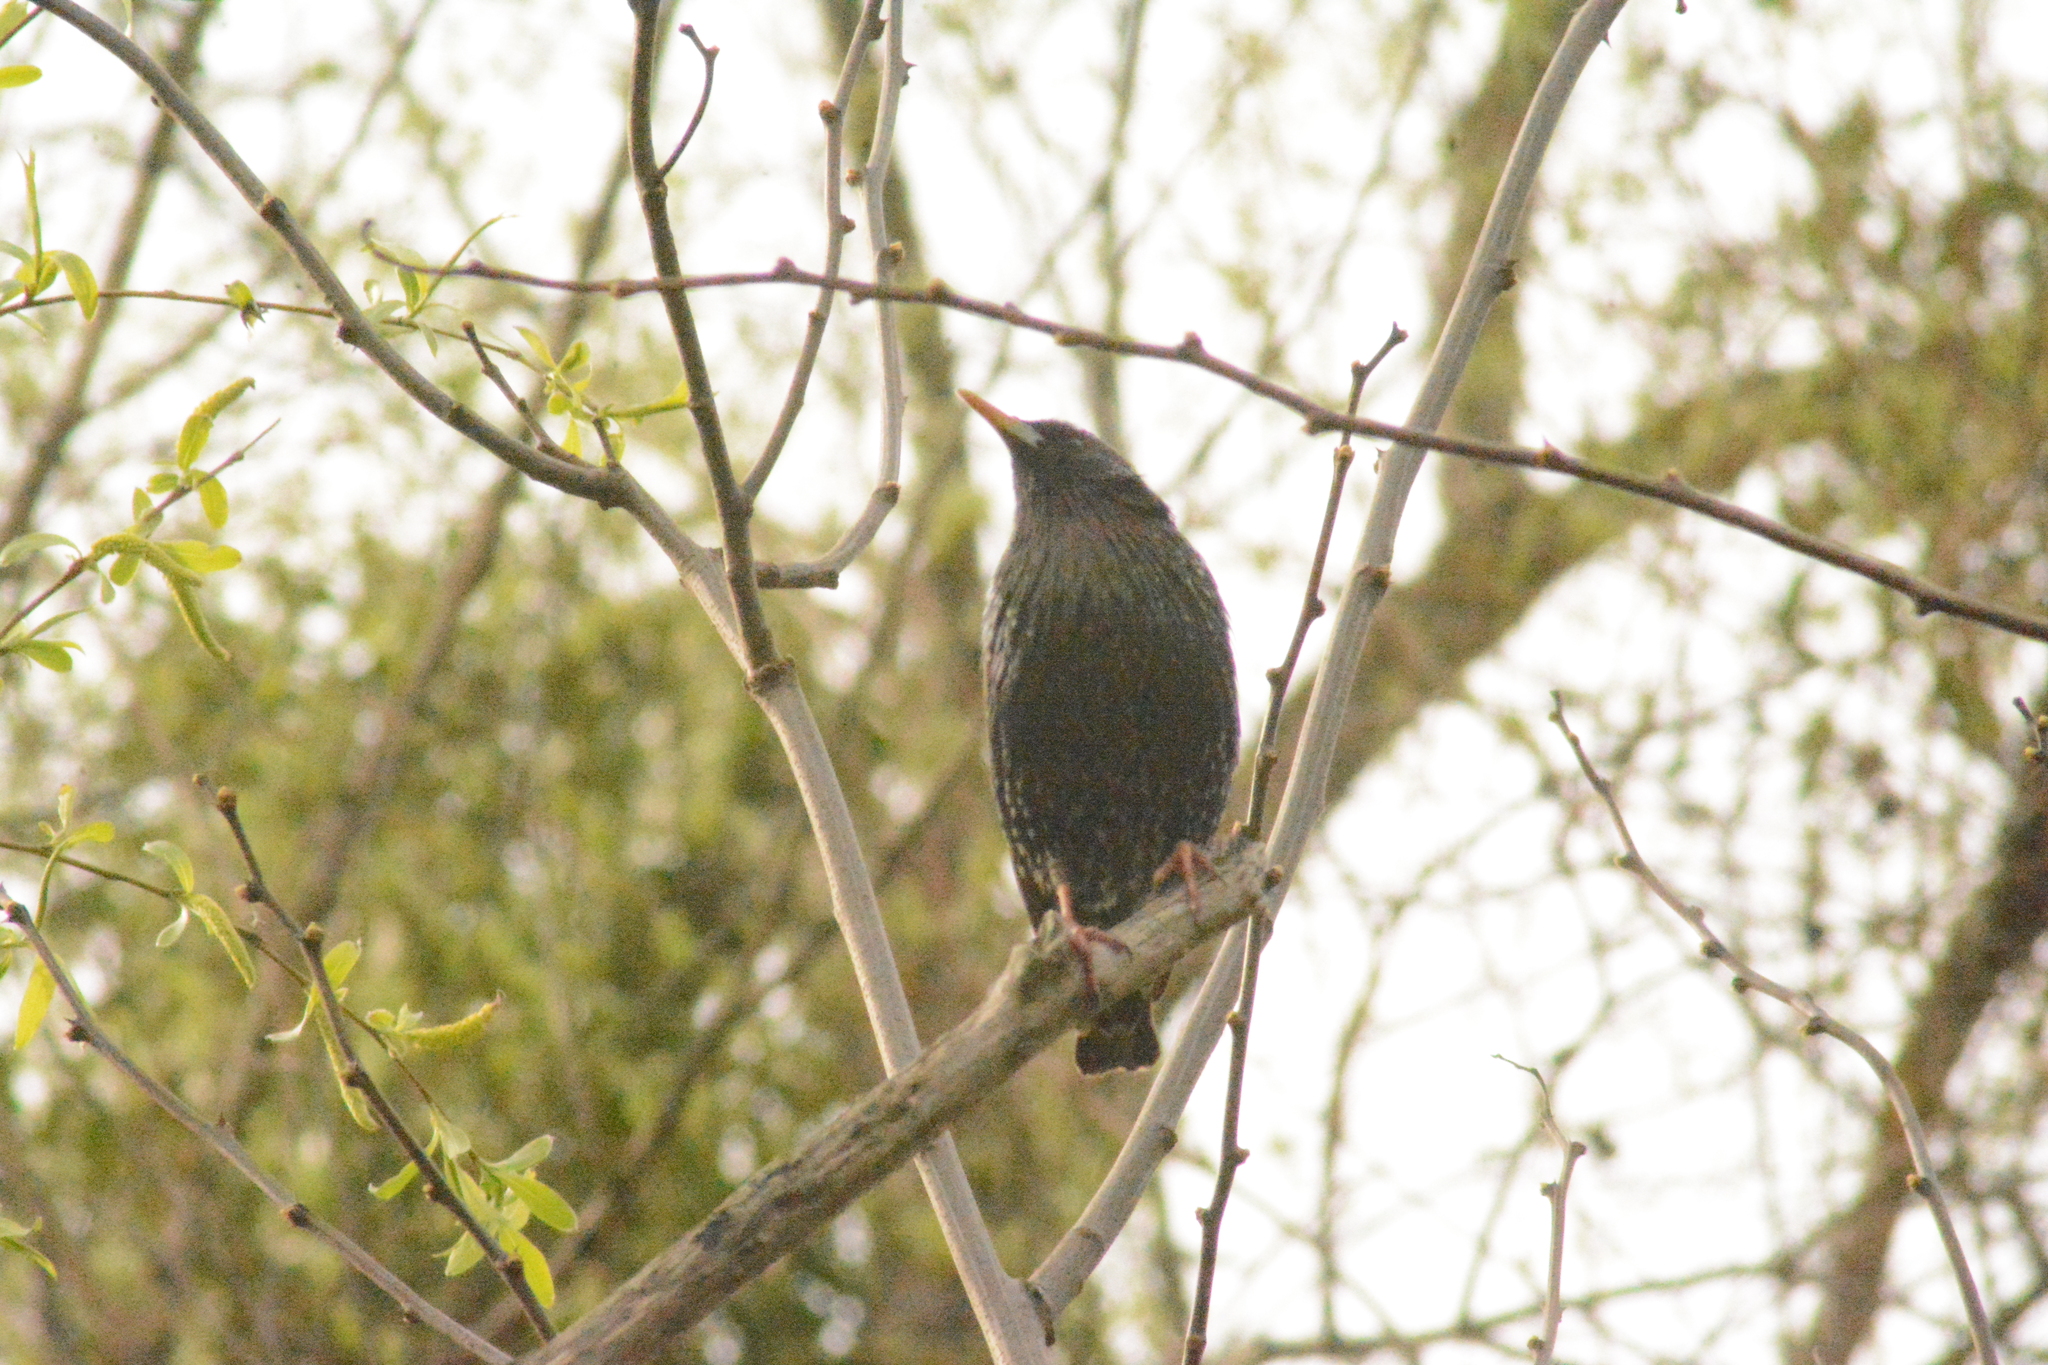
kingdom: Animalia
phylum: Chordata
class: Aves
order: Passeriformes
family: Sturnidae
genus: Sturnus
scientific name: Sturnus vulgaris
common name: Common starling
